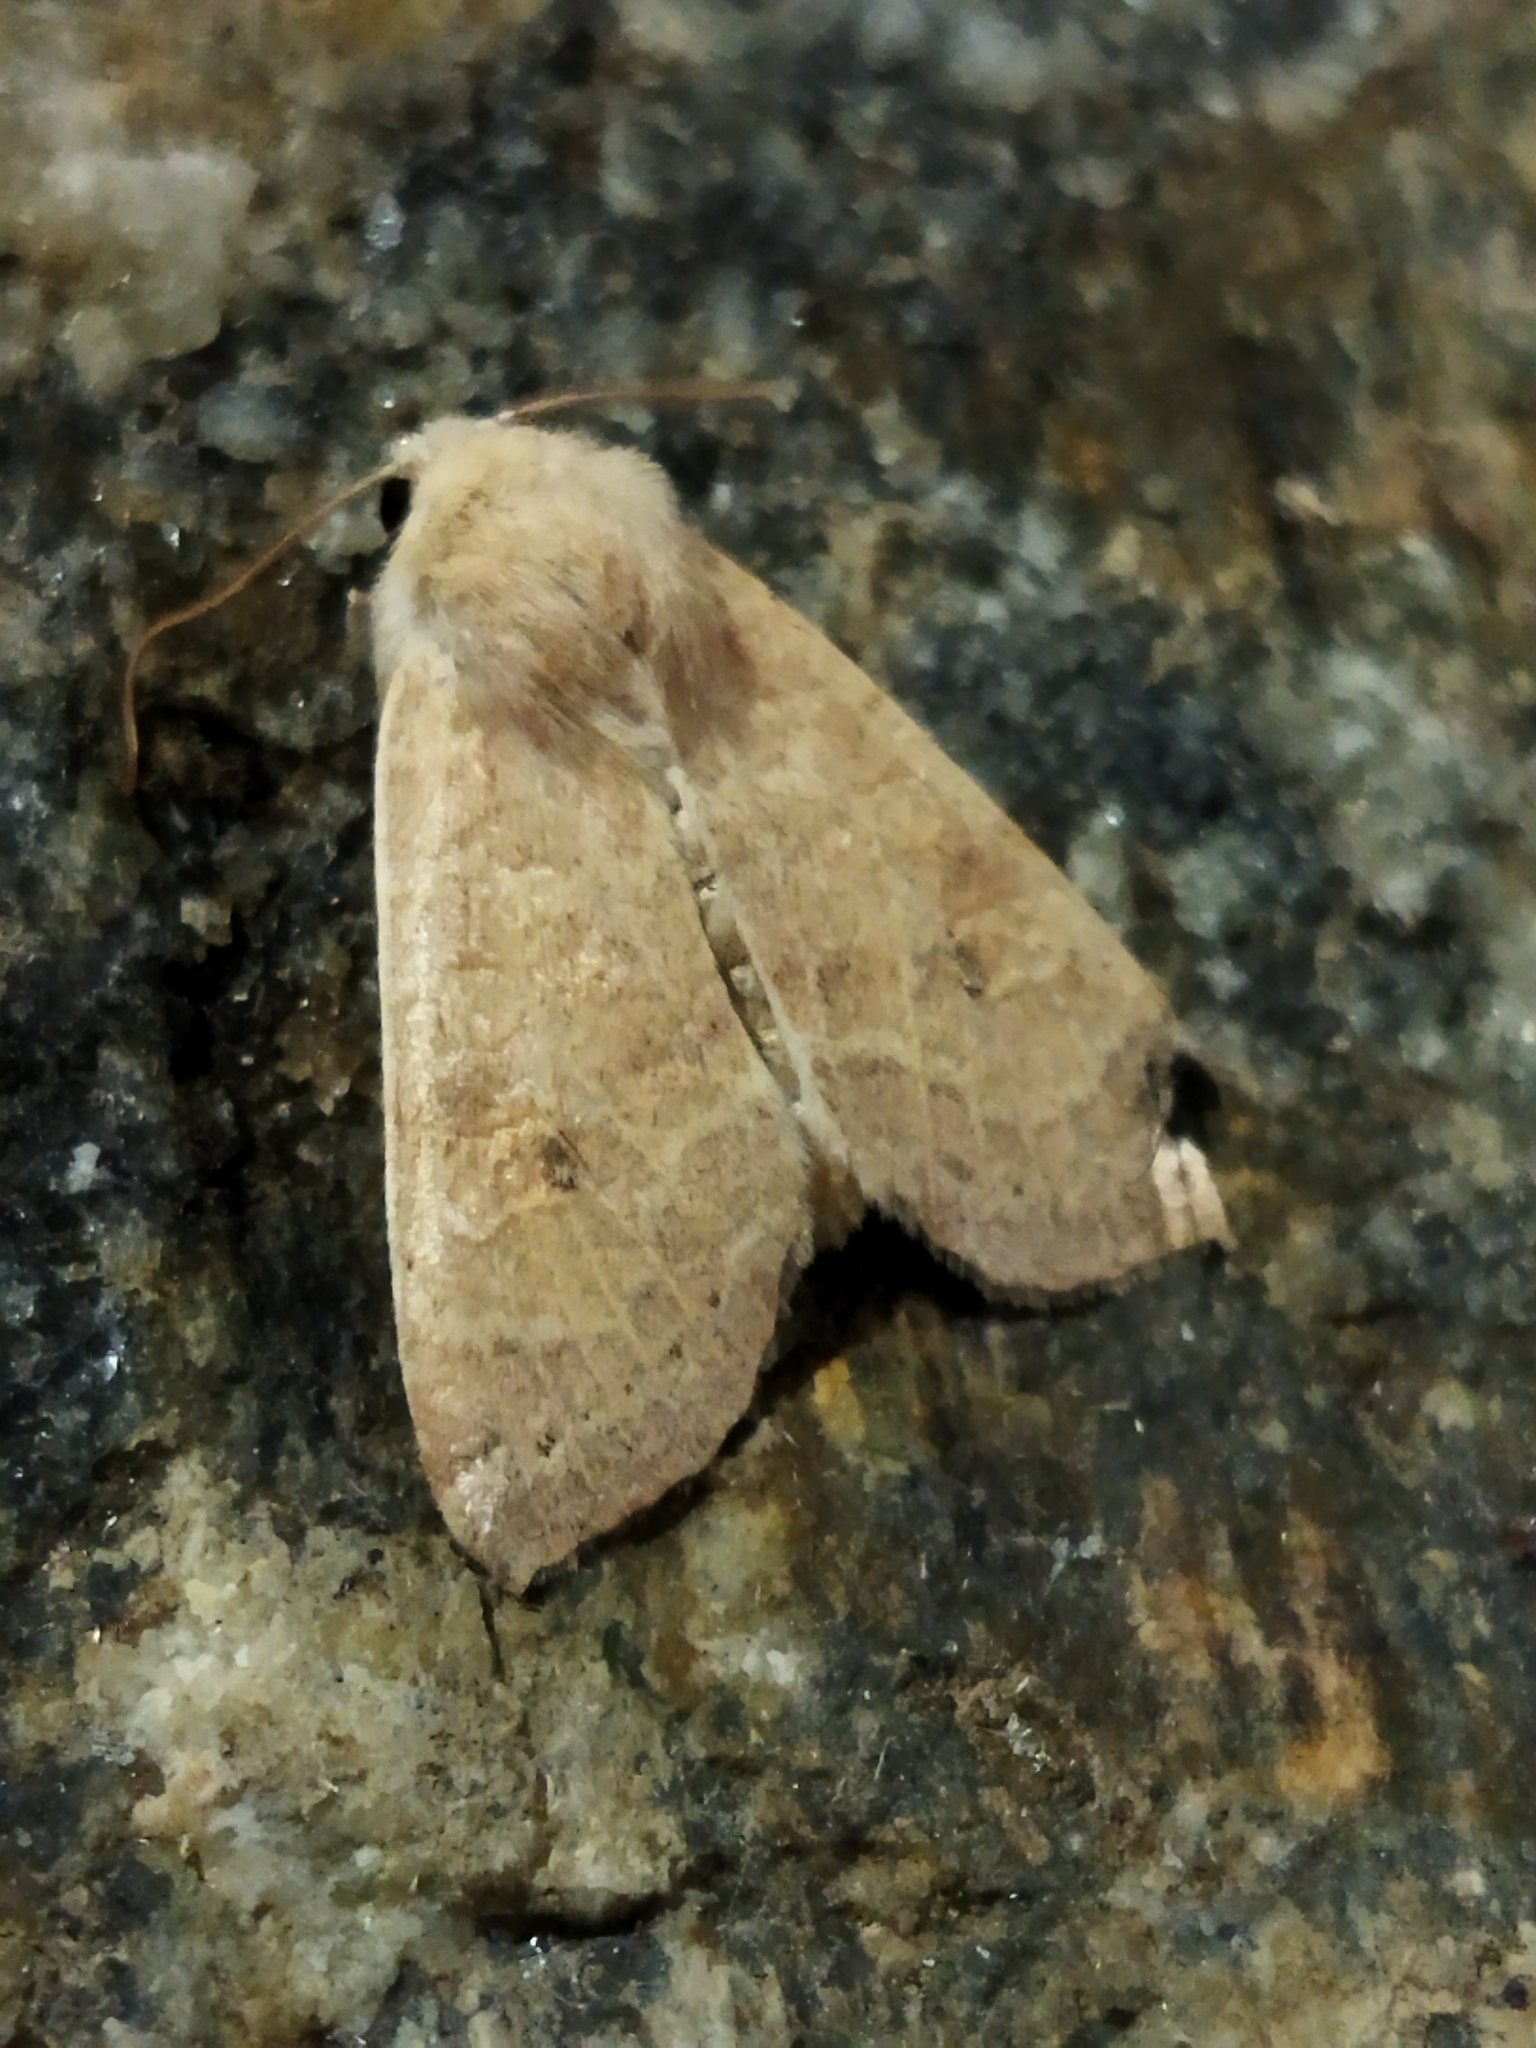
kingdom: Animalia
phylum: Arthropoda
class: Insecta
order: Lepidoptera
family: Noctuidae
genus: Xanthia
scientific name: Xanthia ocellaris
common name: Pale-lemon sallow
